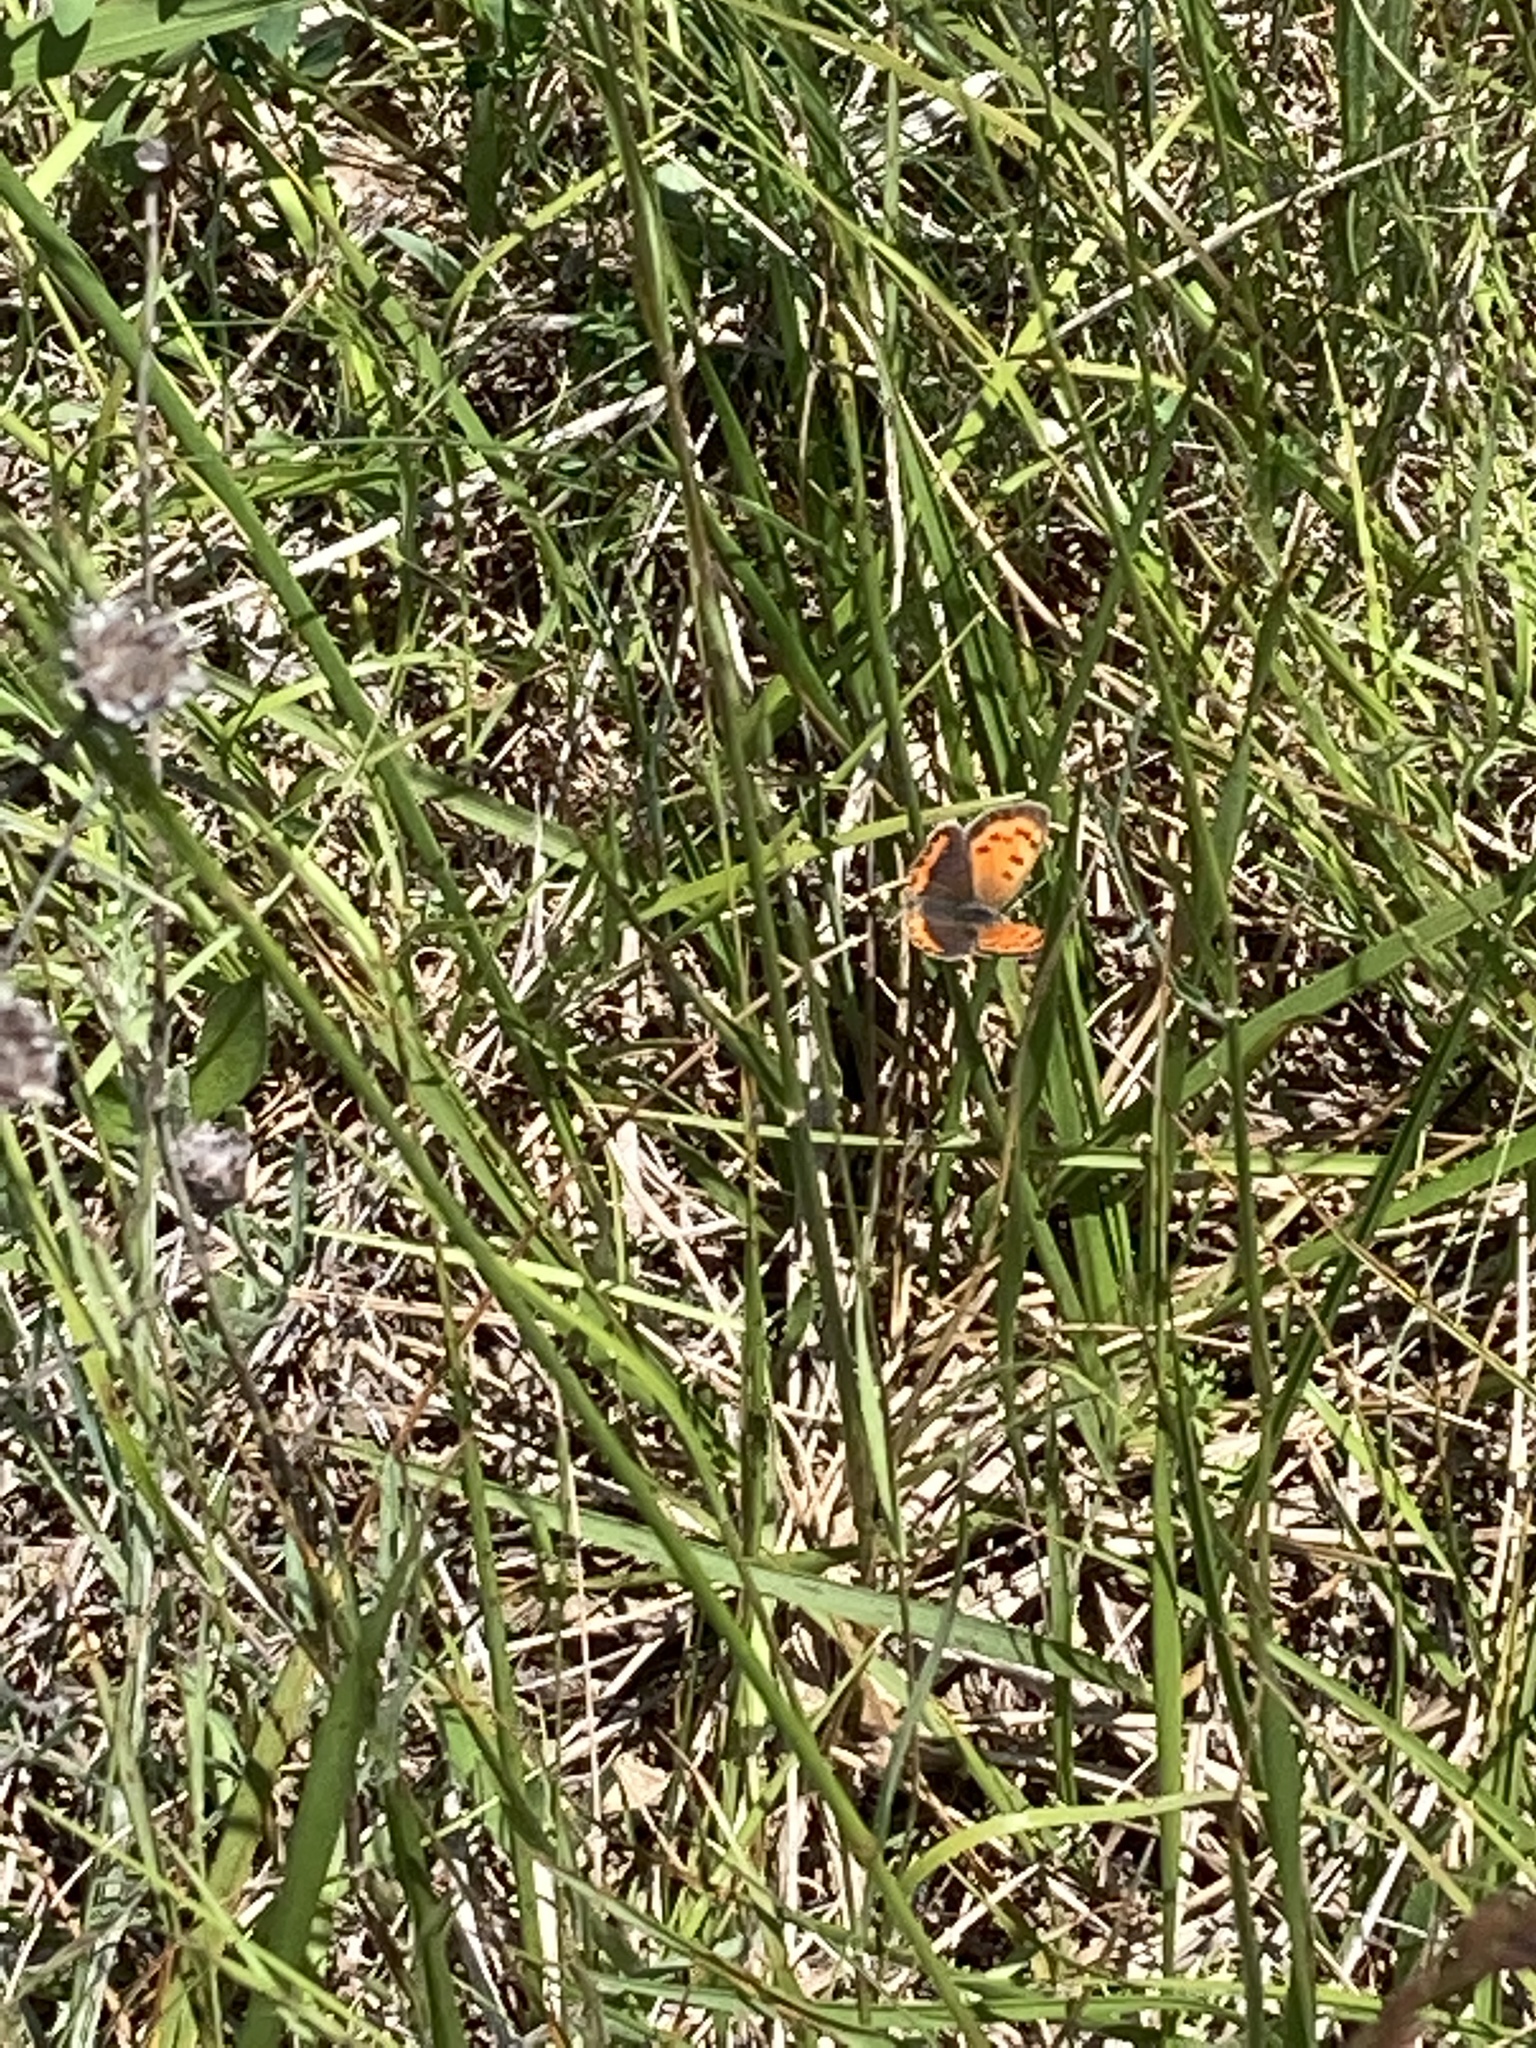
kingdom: Animalia
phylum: Arthropoda
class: Insecta
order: Lepidoptera
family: Lycaenidae
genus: Lycaena
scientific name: Lycaena hypophlaeas
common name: American copper
